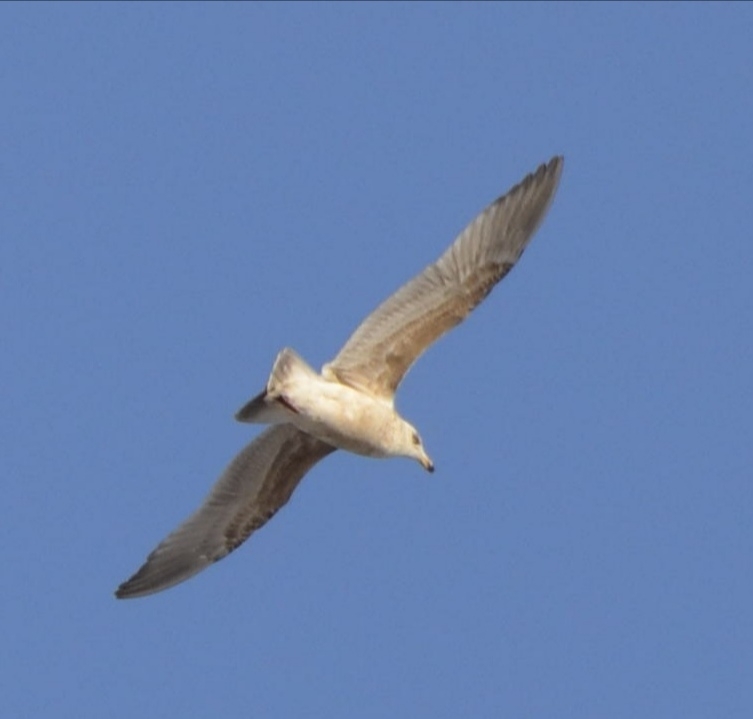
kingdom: Animalia
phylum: Chordata
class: Aves
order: Charadriiformes
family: Laridae
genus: Larus
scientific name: Larus schistisagus
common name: Slaty-backed gull
